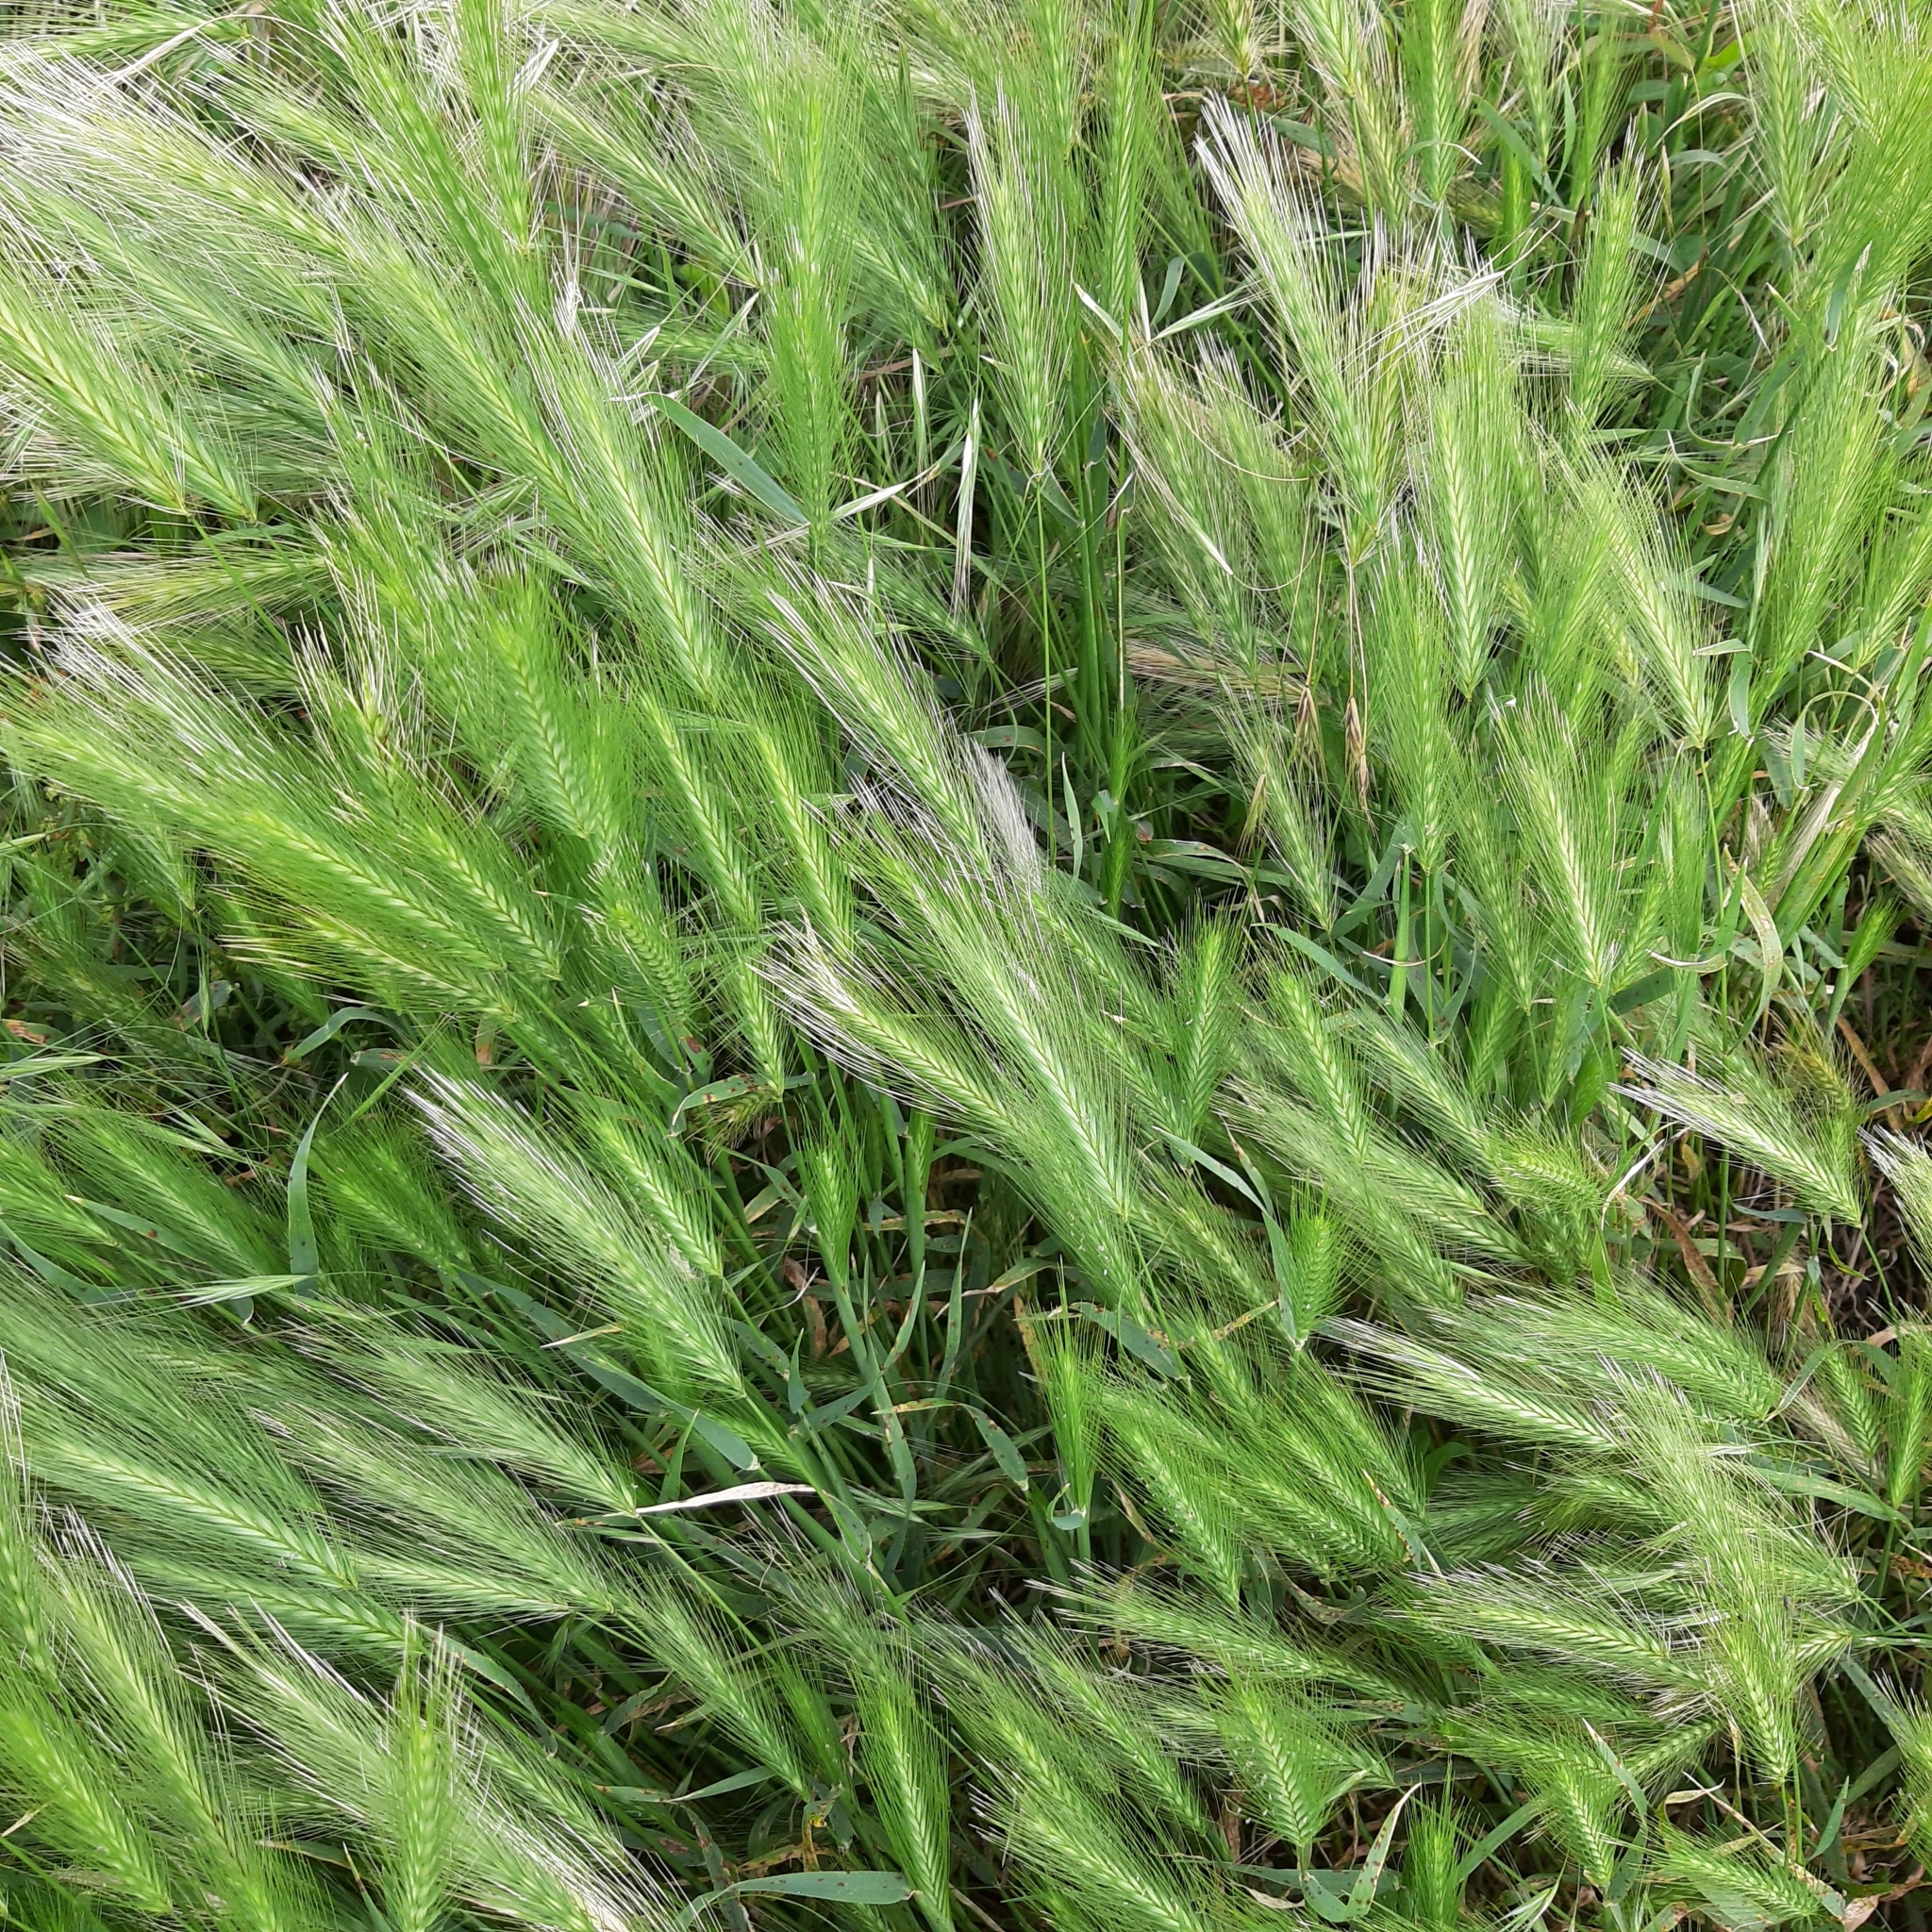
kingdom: Plantae
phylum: Tracheophyta
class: Liliopsida
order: Poales
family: Poaceae
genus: Hordeum
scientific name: Hordeum murinum
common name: Wall barley
